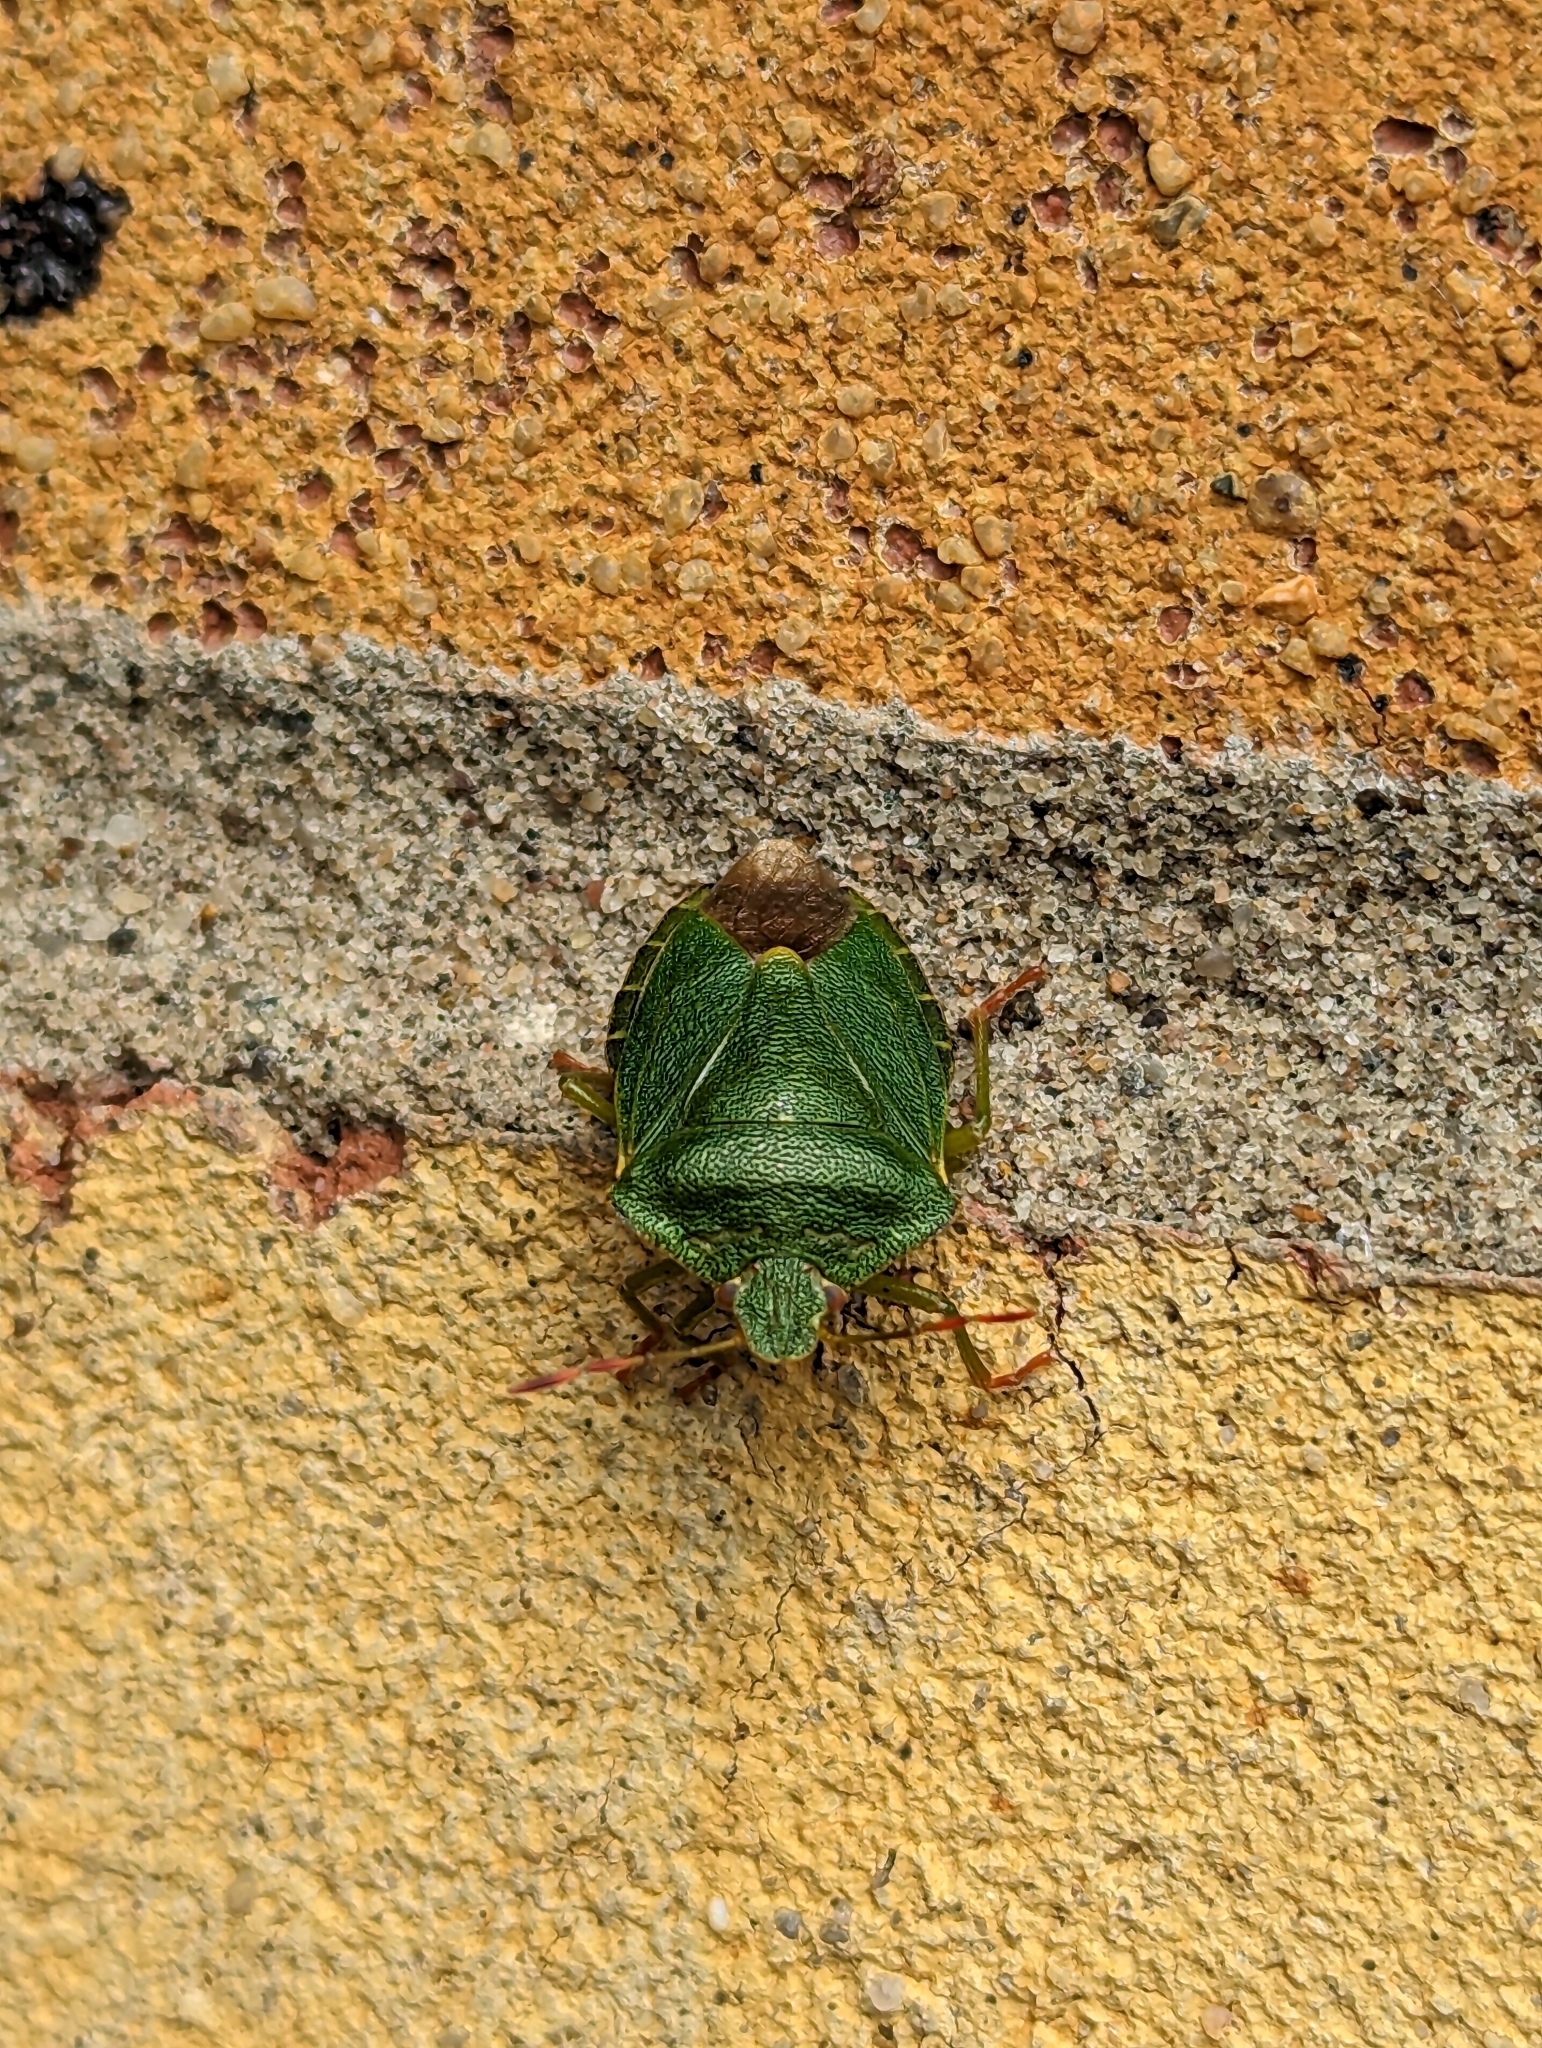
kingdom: Animalia
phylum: Arthropoda
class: Insecta
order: Hemiptera
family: Pentatomidae
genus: Palomena
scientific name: Palomena prasina
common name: Green shieldbug
